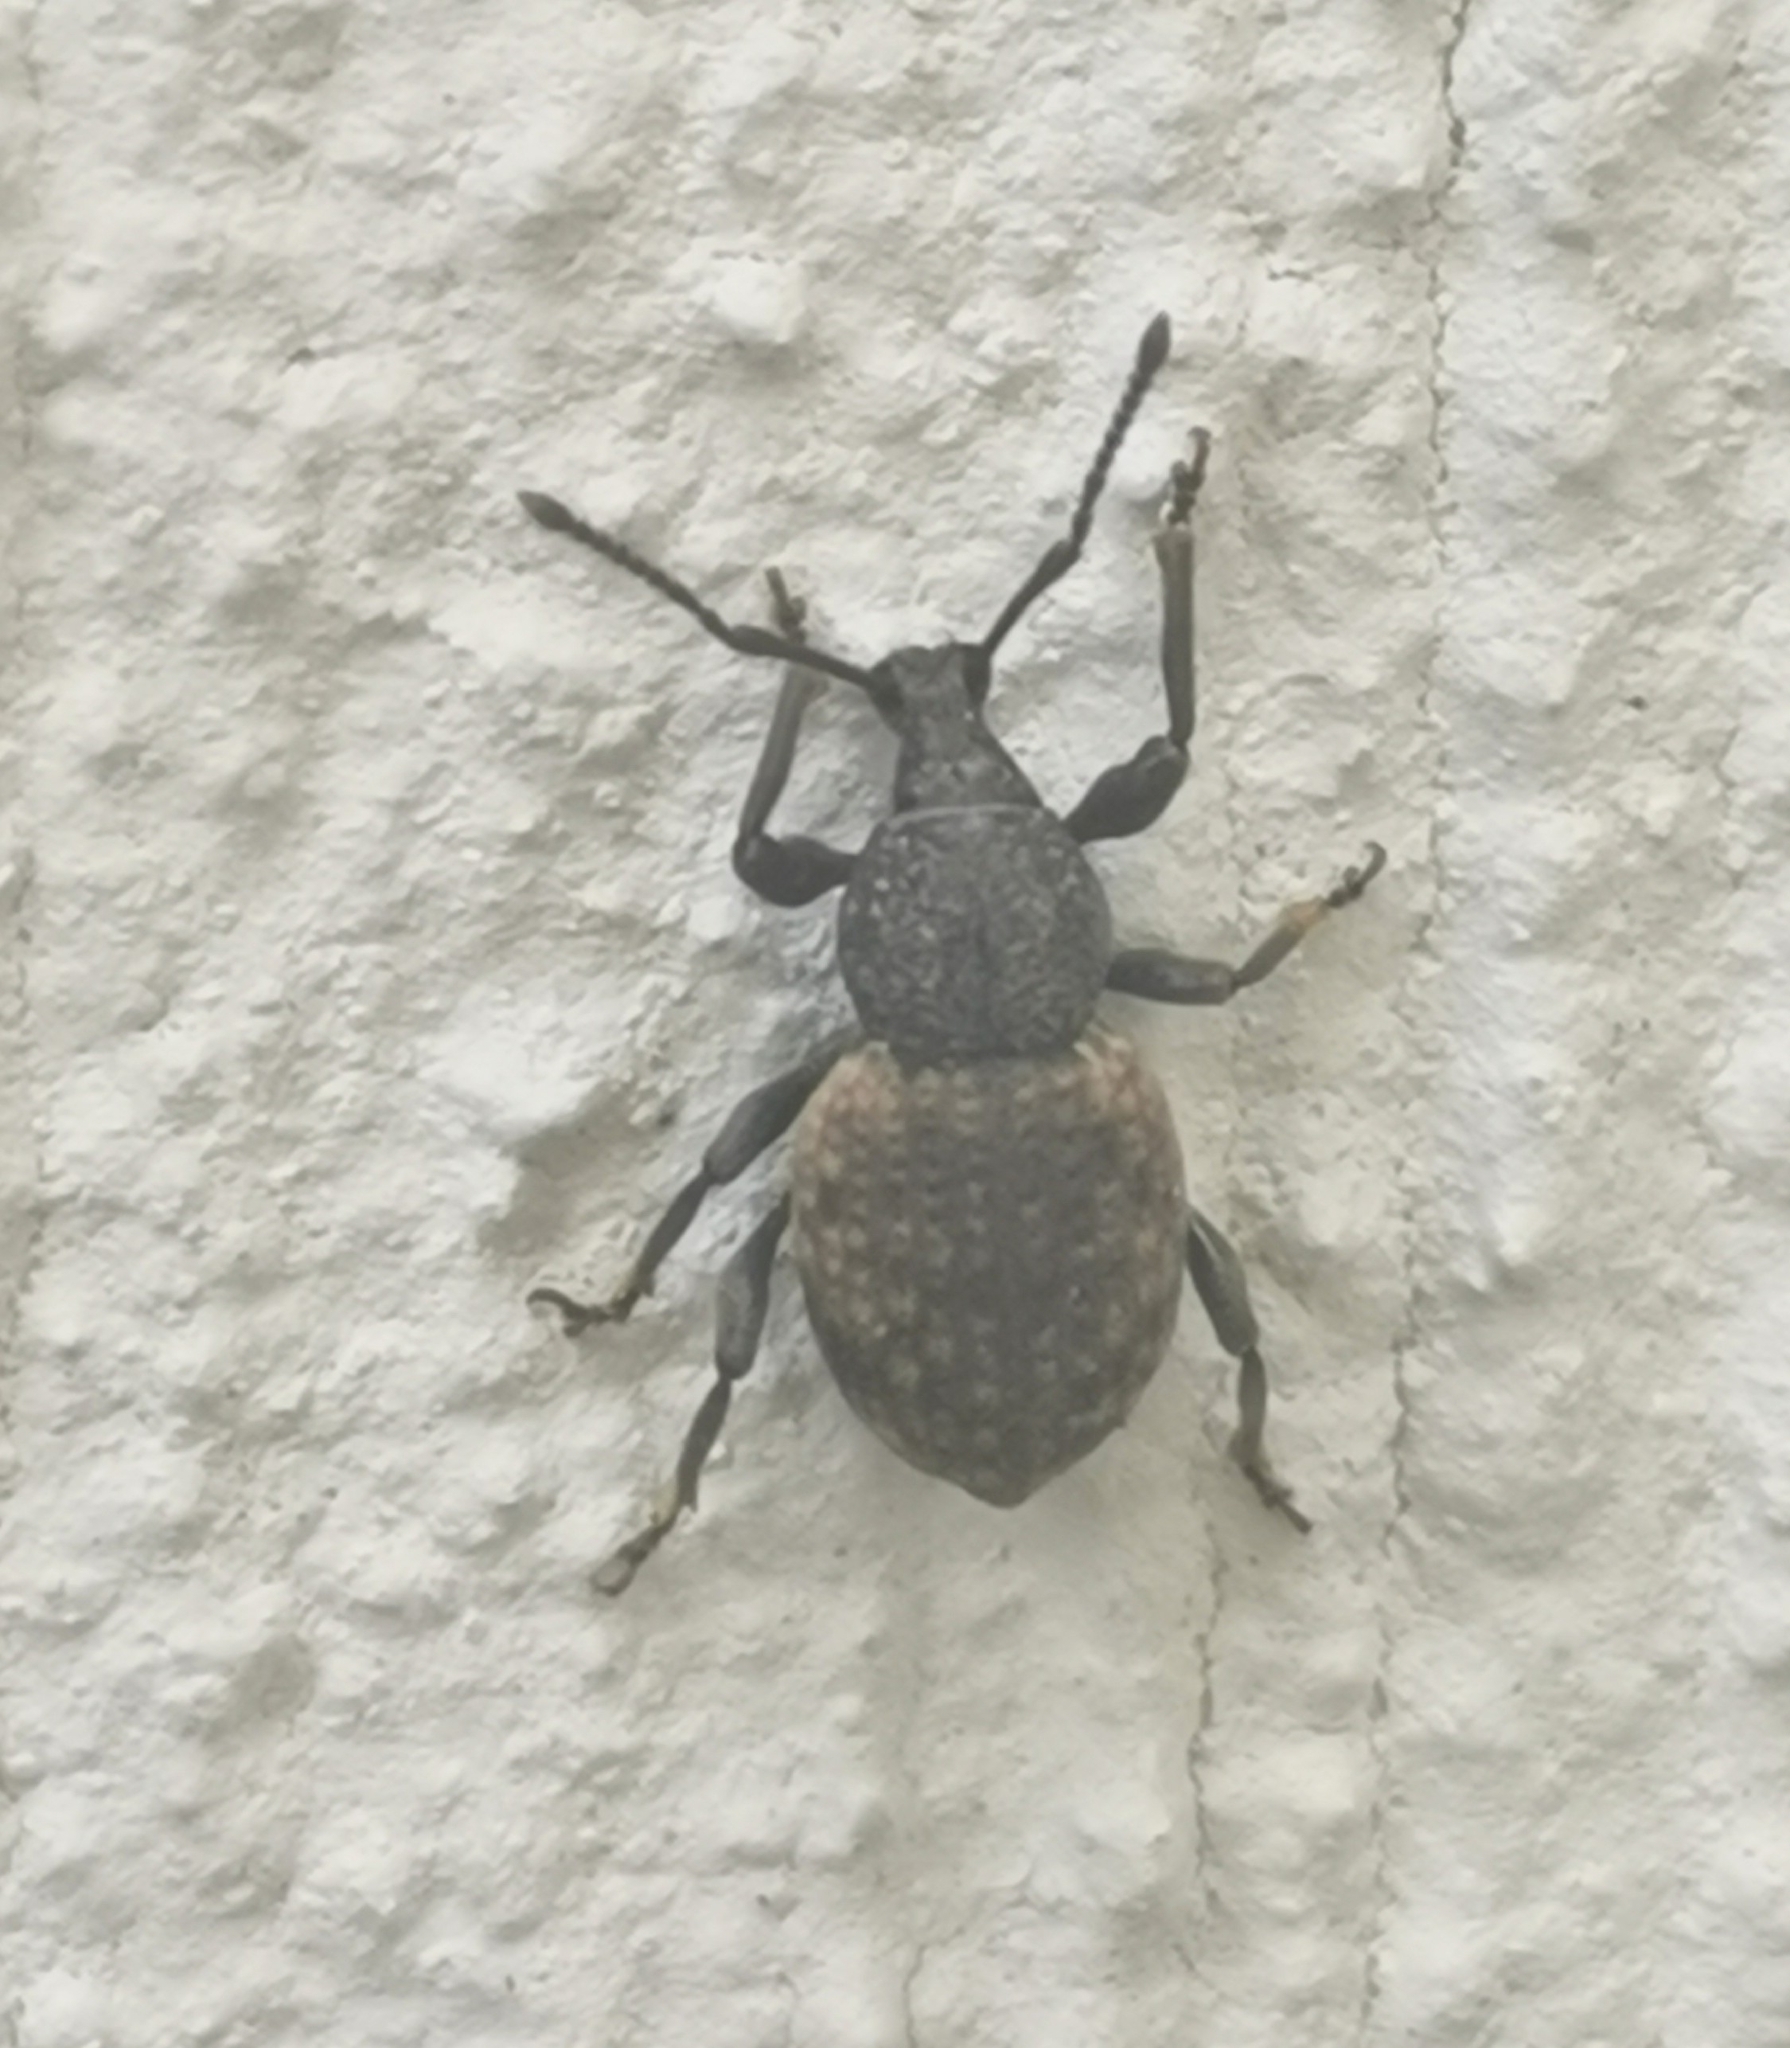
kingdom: Animalia
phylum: Arthropoda
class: Insecta
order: Coleoptera
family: Curculionidae
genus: Otiorhynchus
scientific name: Otiorhynchus raucus
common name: Weevil
